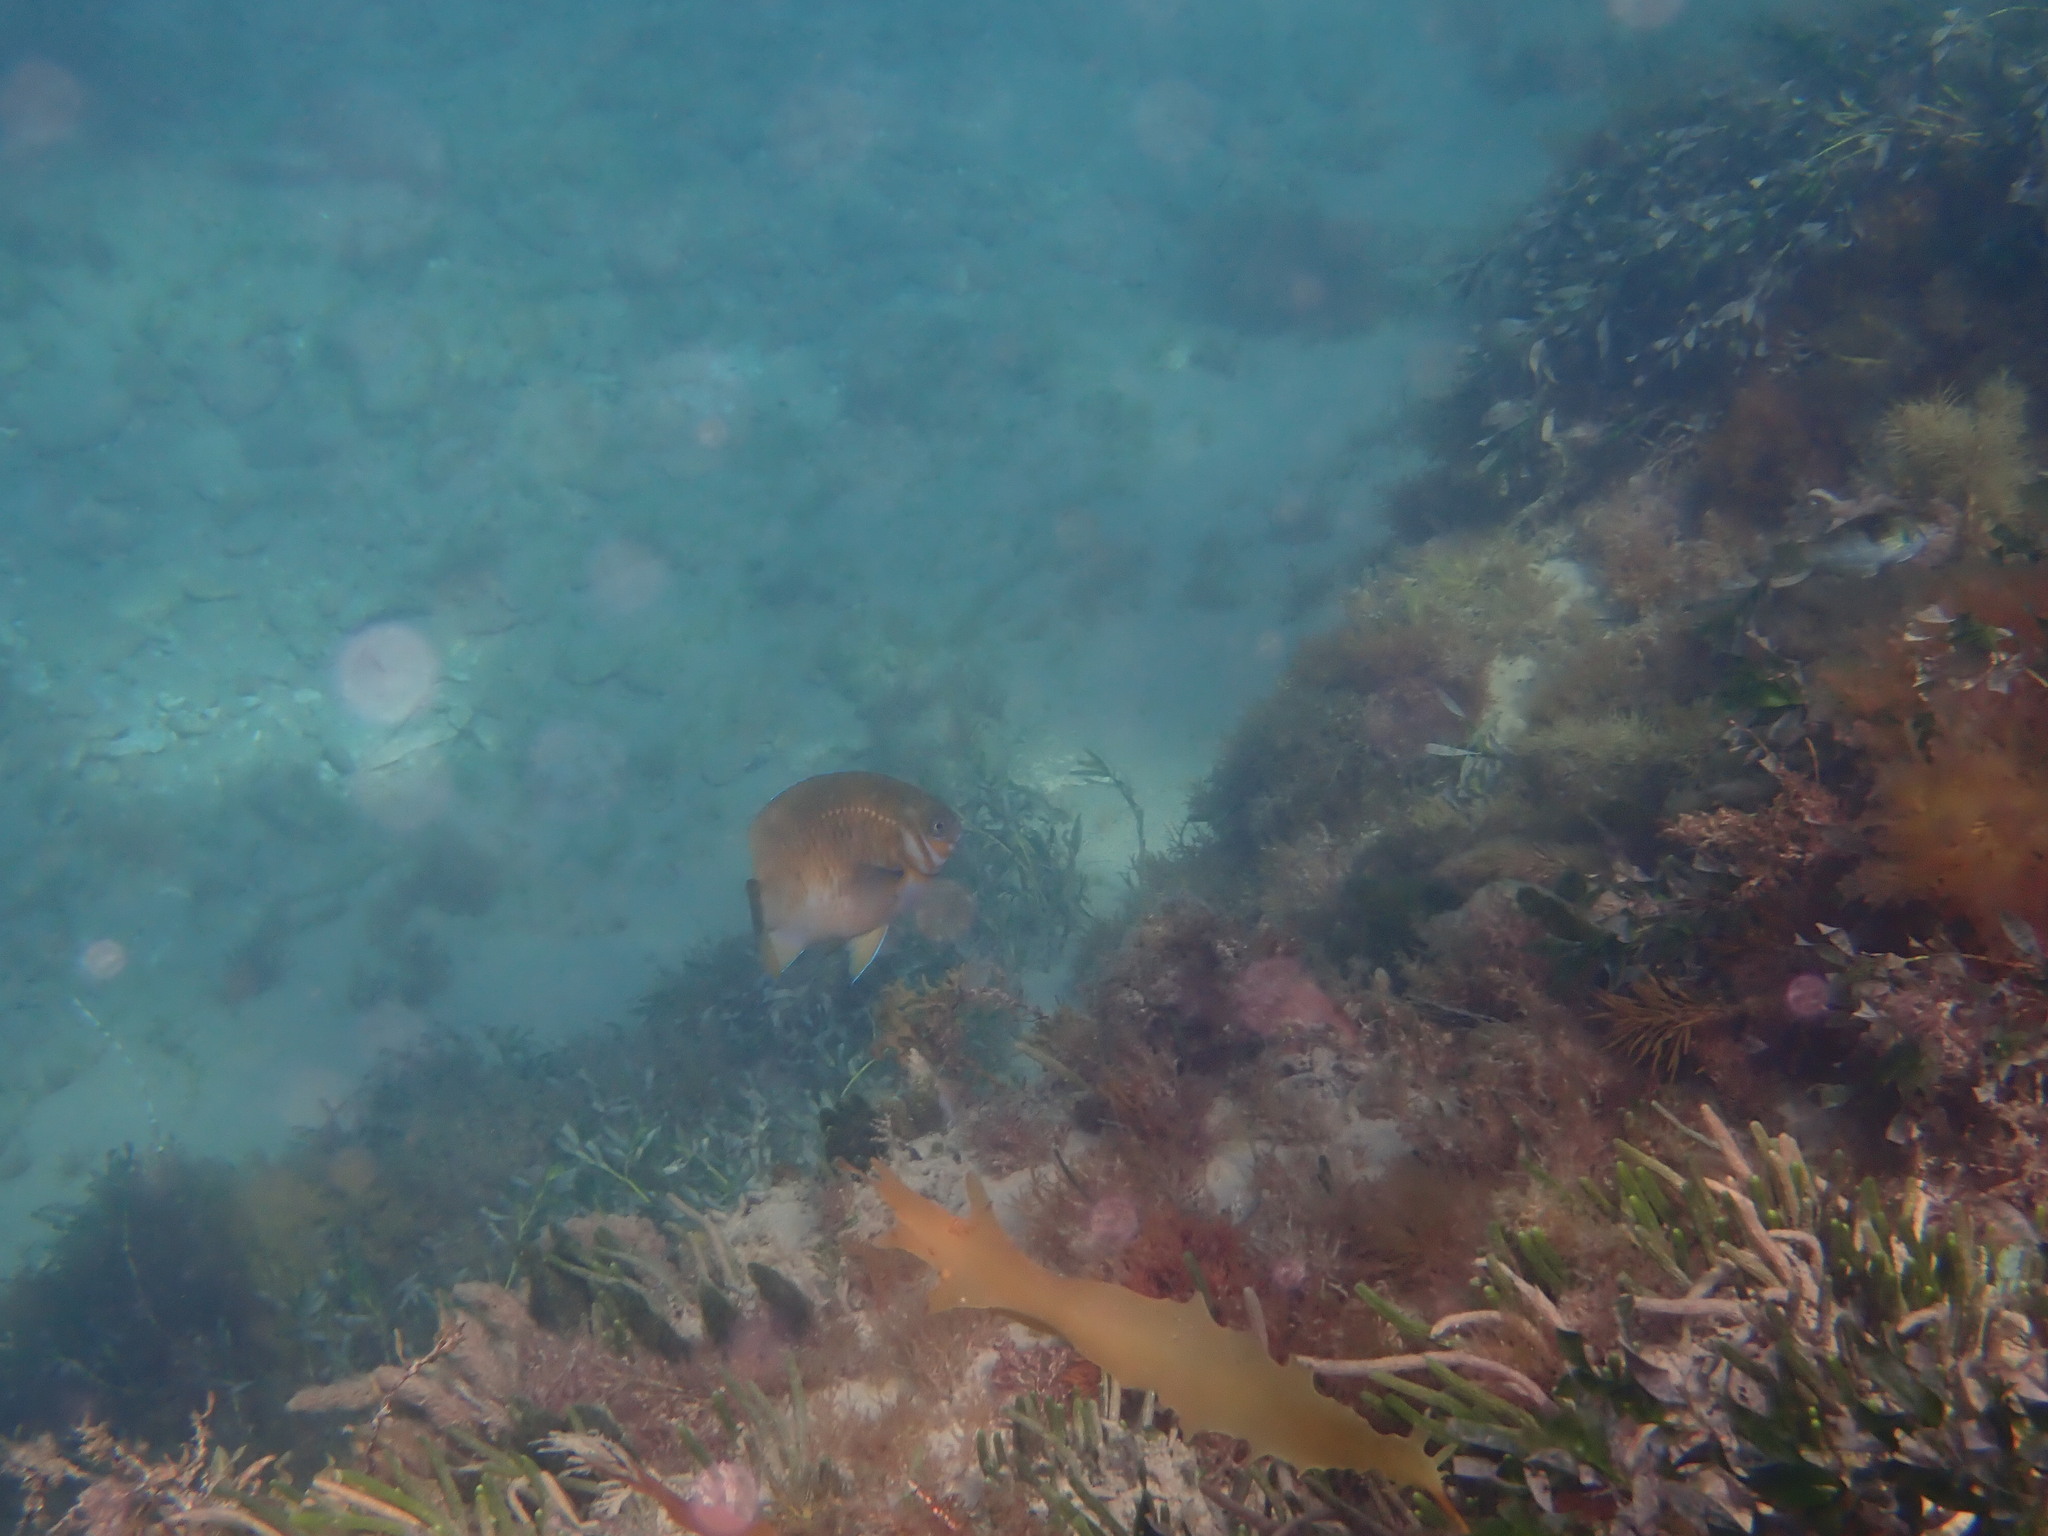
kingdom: Animalia
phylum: Chordata
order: Perciformes
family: Pomacentridae
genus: Parma
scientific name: Parma victoriae
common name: Rock perch
